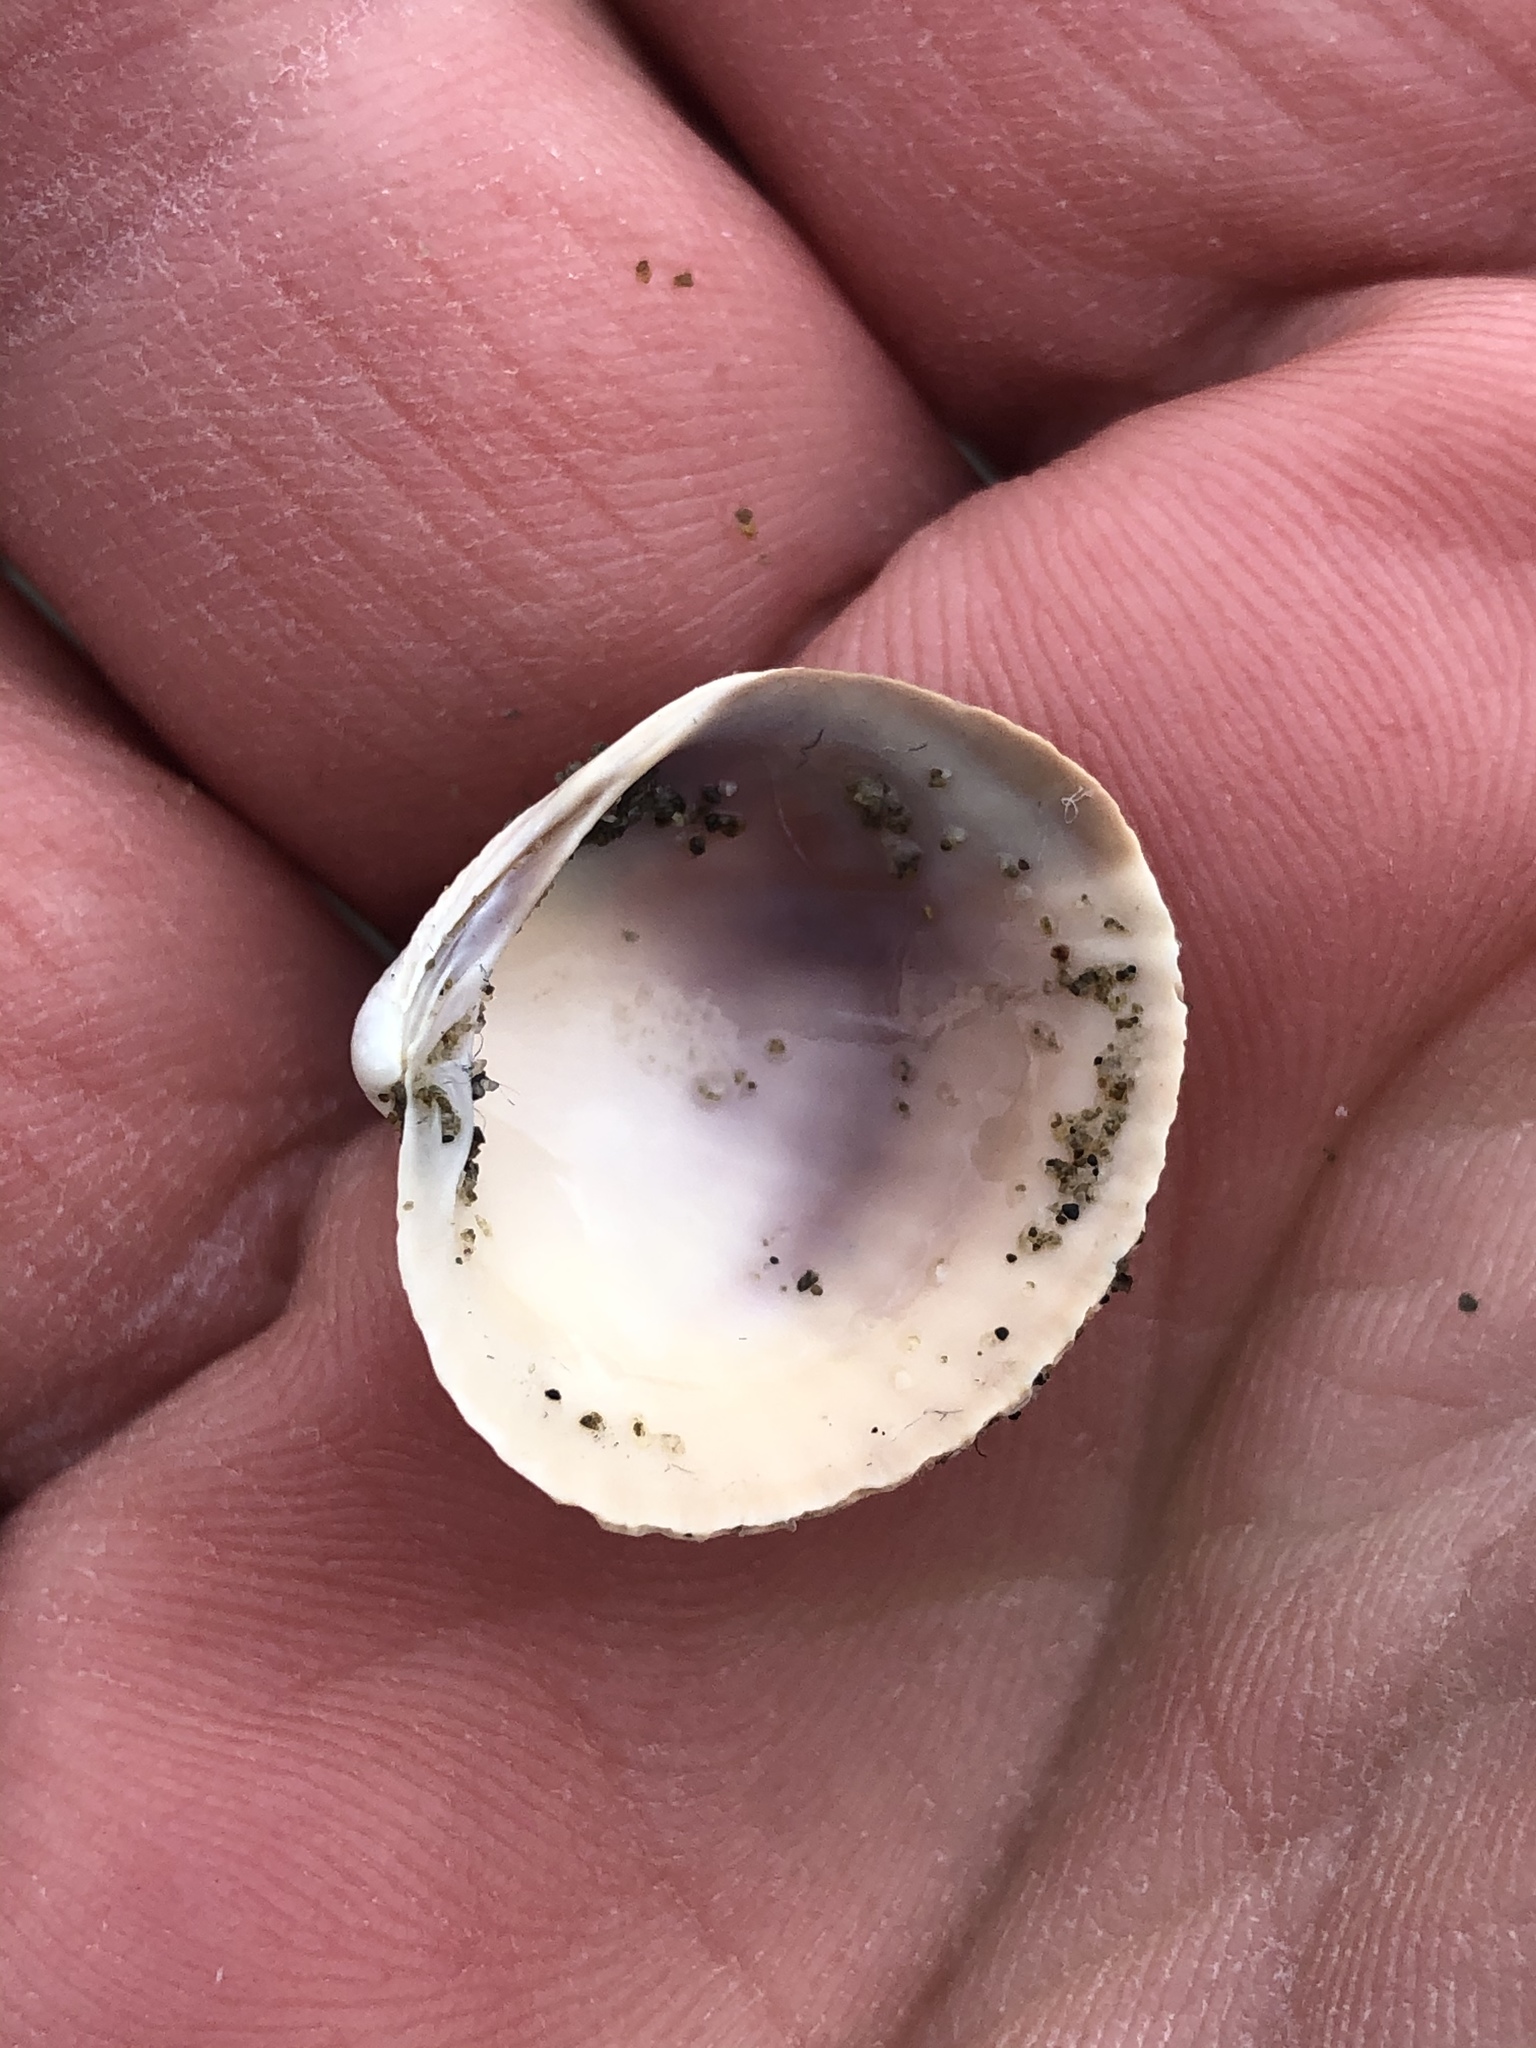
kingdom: Animalia
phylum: Mollusca
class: Bivalvia
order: Venerida
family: Veneridae
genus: Austrovenus
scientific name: Austrovenus stutchburyi
